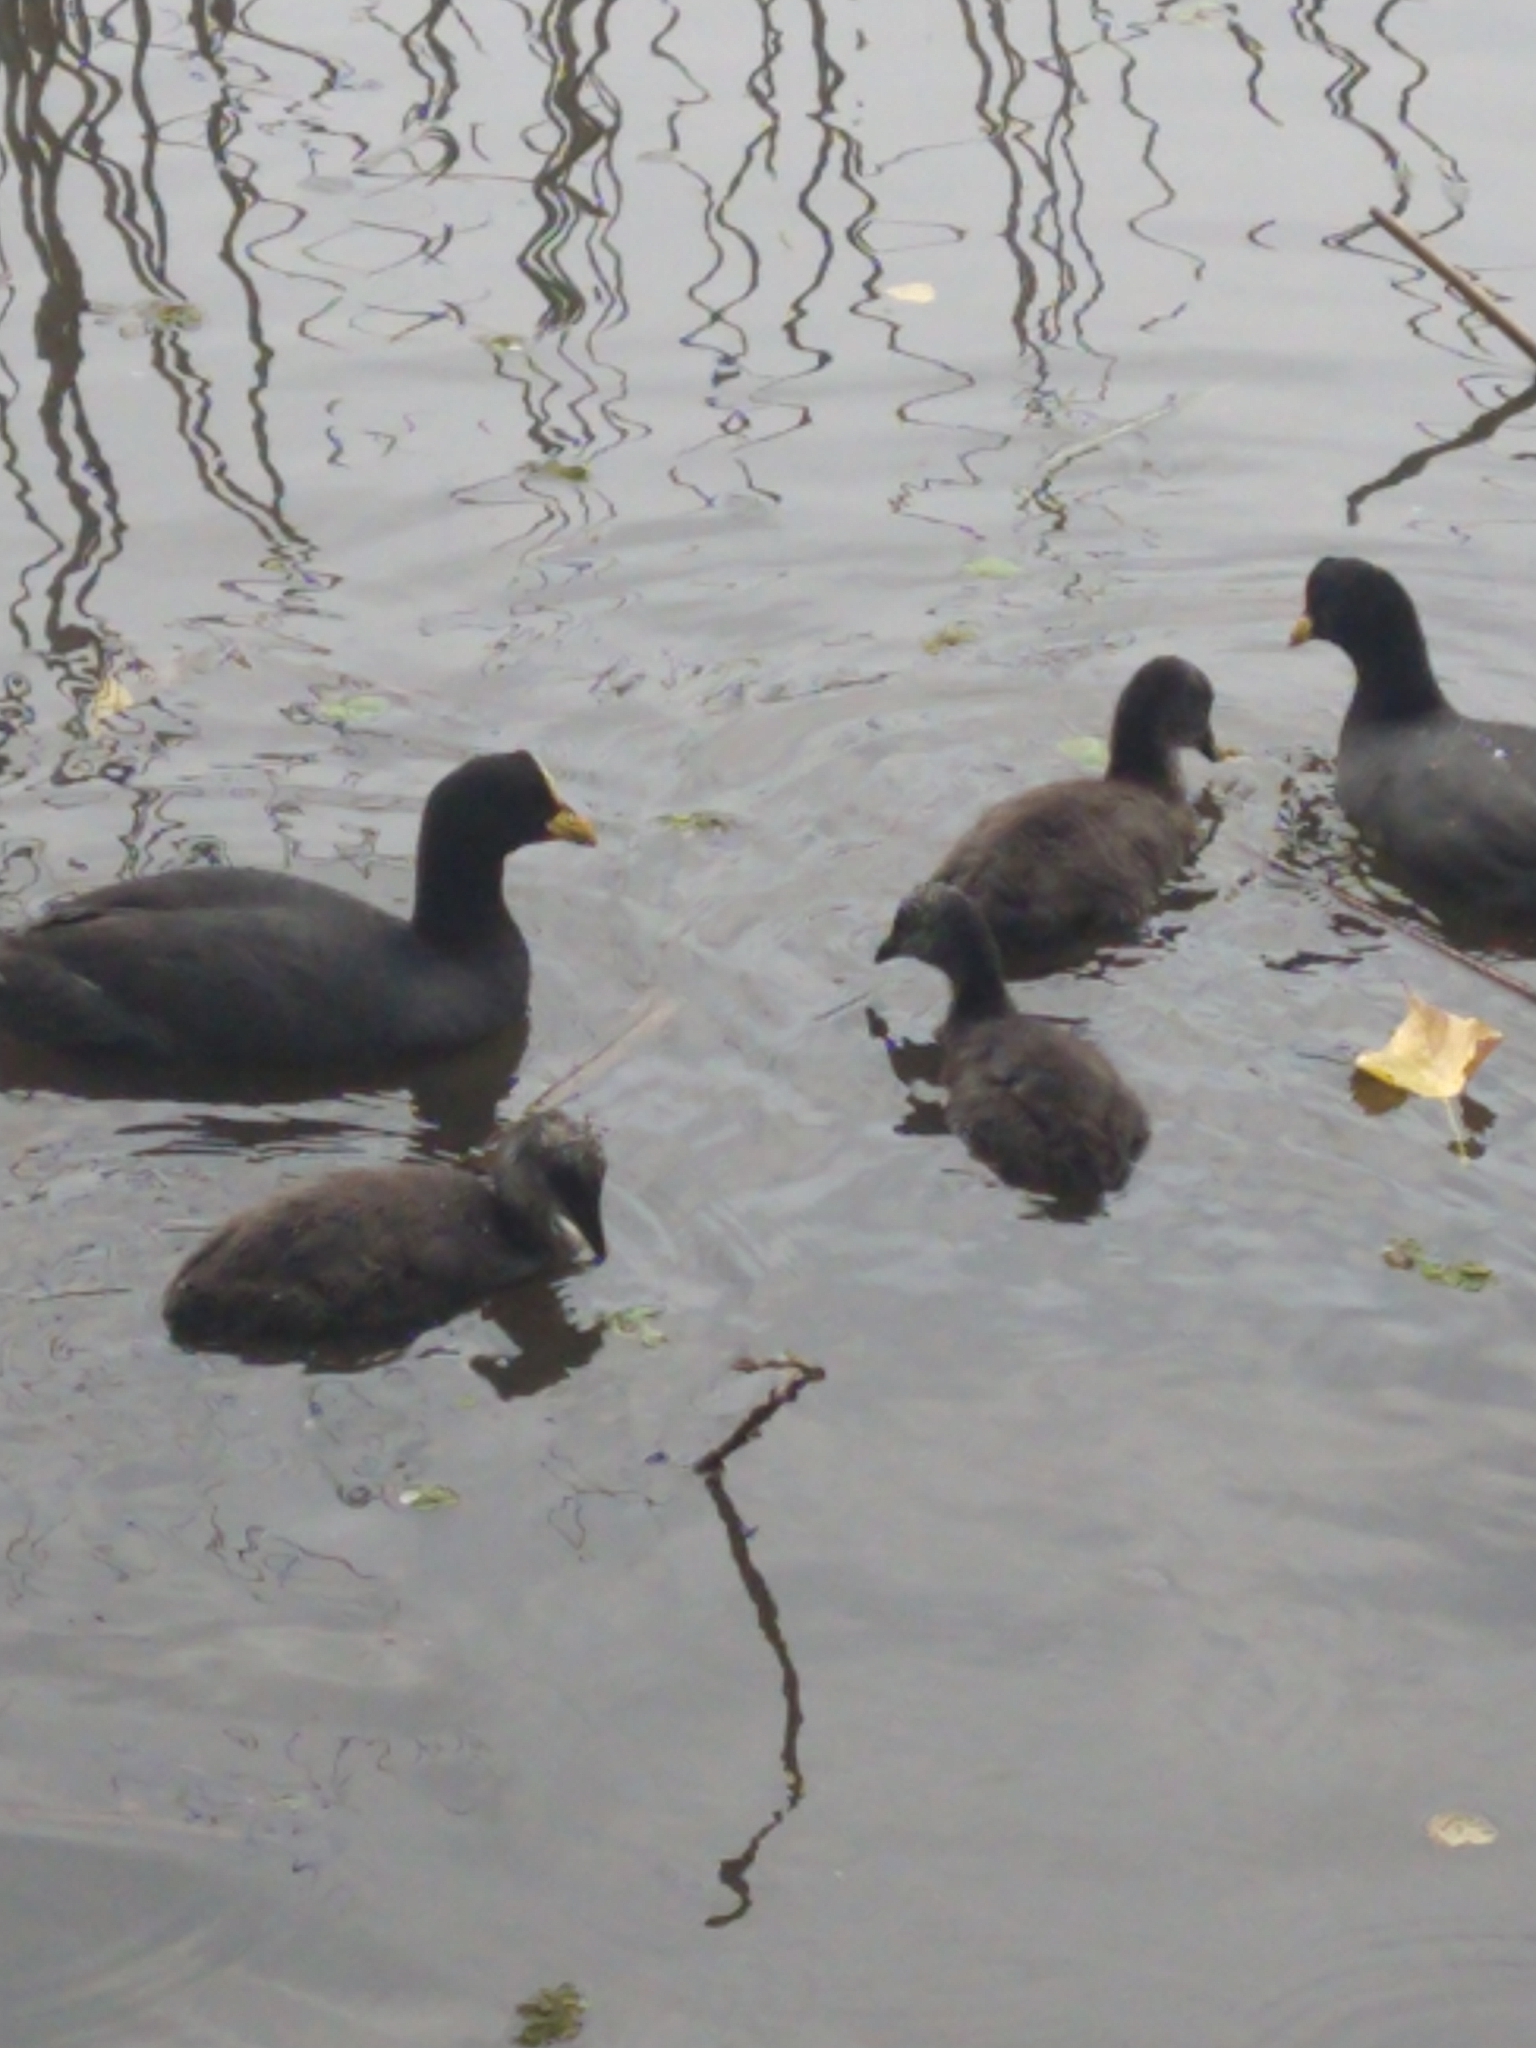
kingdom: Animalia
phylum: Chordata
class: Aves
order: Gruiformes
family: Rallidae
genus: Fulica
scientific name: Fulica armillata
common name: Red-gartered coot
